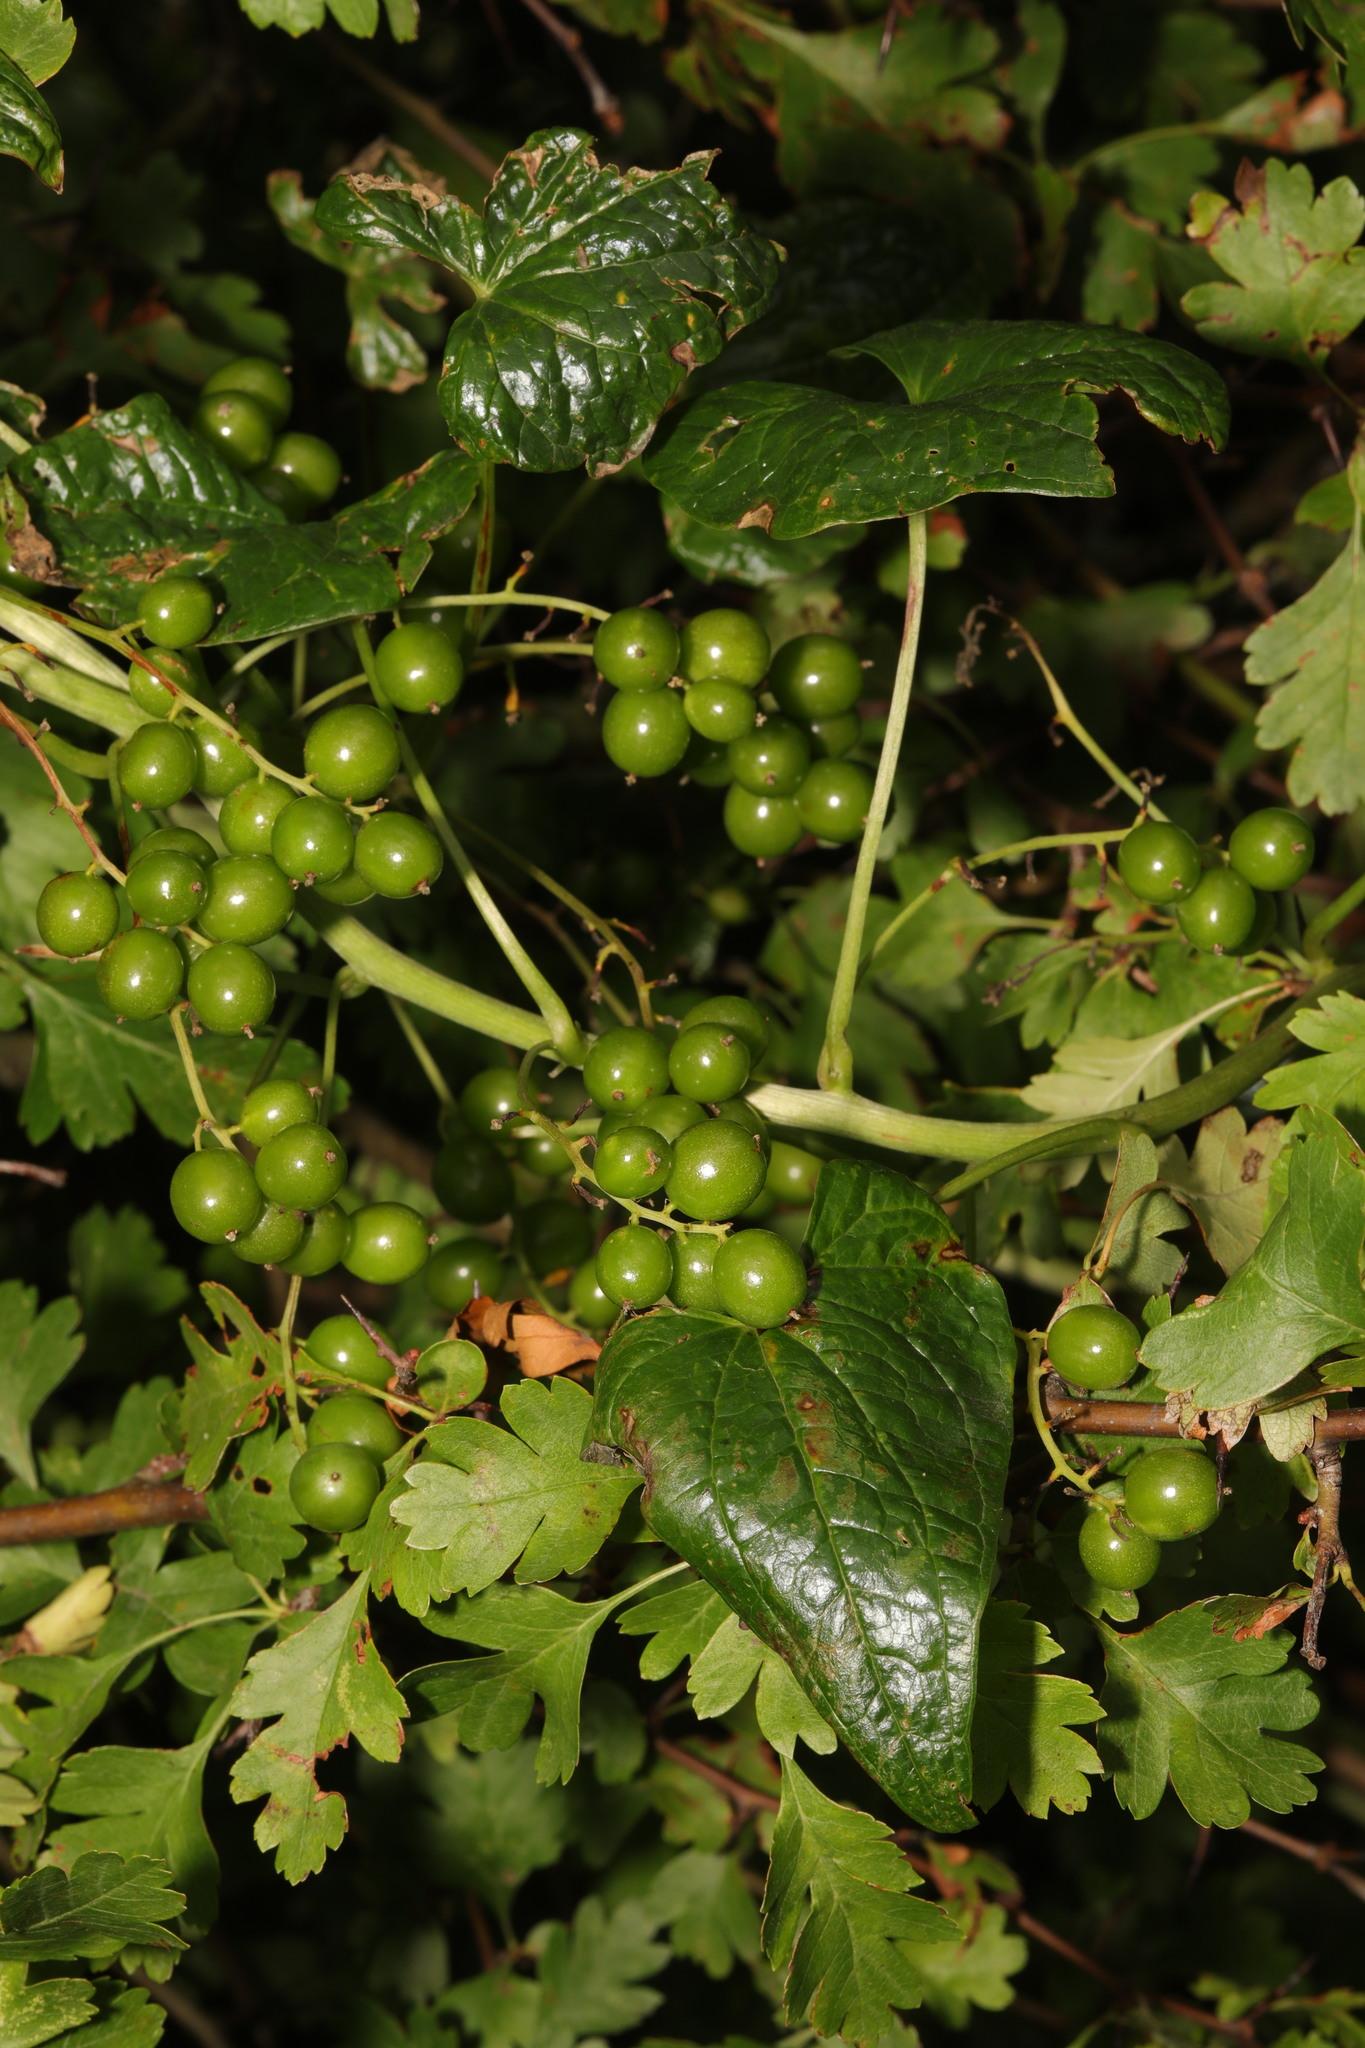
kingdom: Plantae
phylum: Tracheophyta
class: Liliopsida
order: Dioscoreales
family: Dioscoreaceae
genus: Dioscorea
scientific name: Dioscorea communis
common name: Black-bindweed
